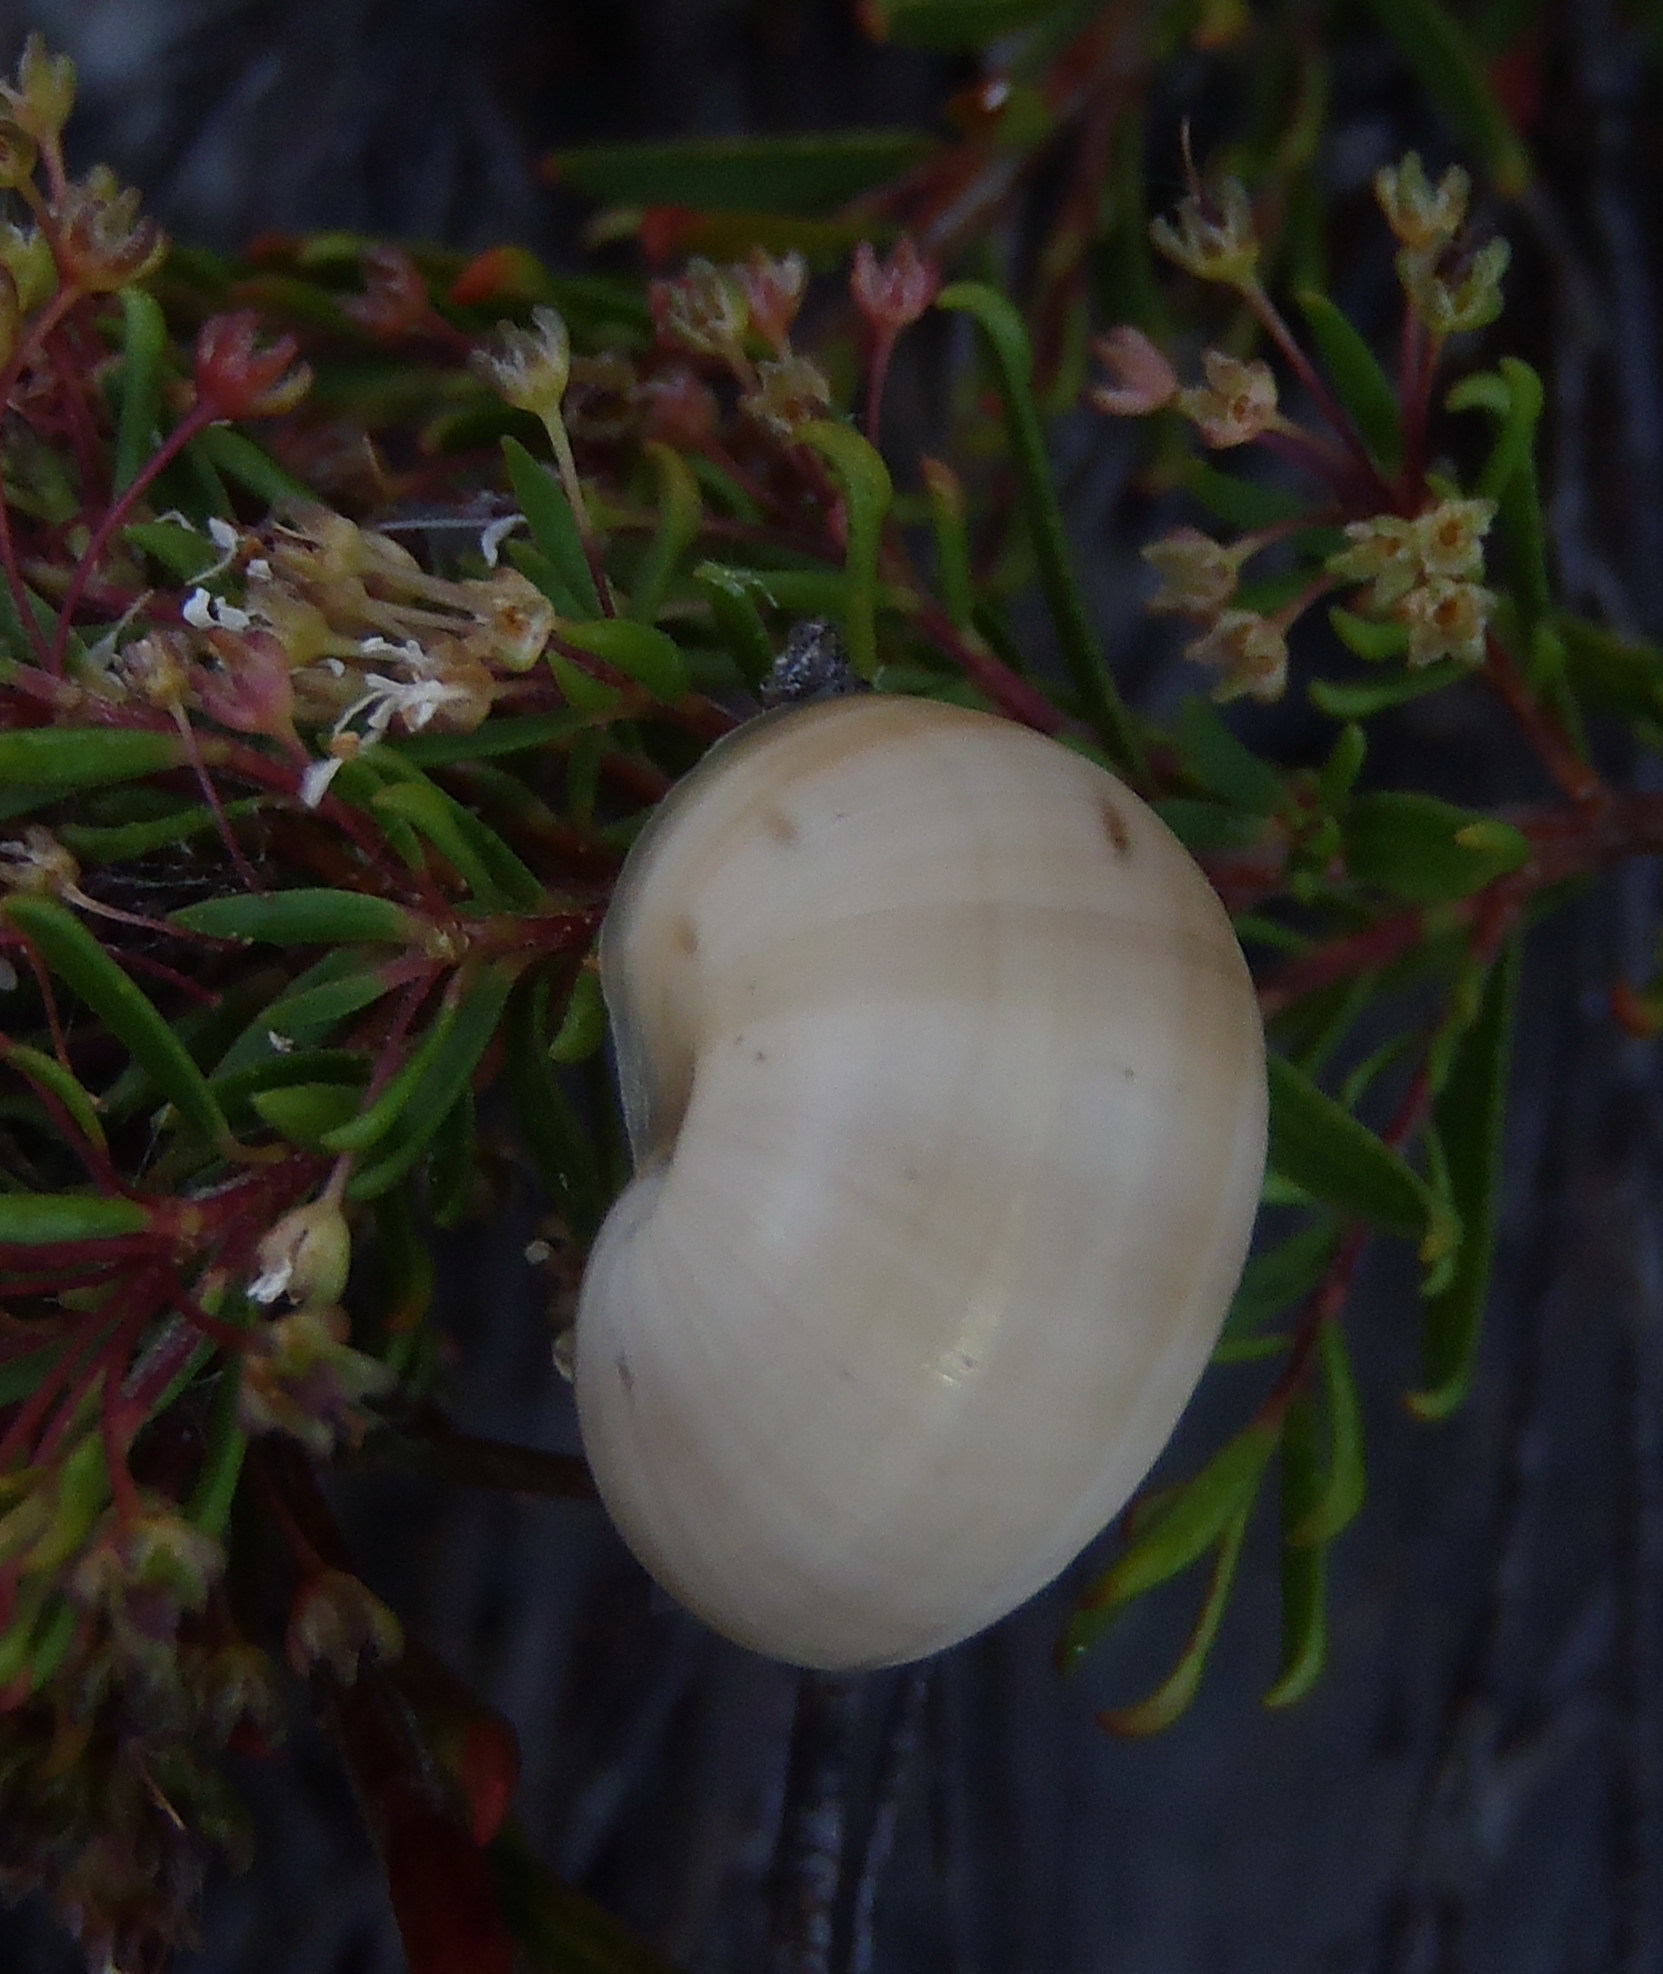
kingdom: Animalia
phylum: Mollusca
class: Gastropoda
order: Stylommatophora
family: Charopidae
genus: Phortion
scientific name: Phortion menkeanum
